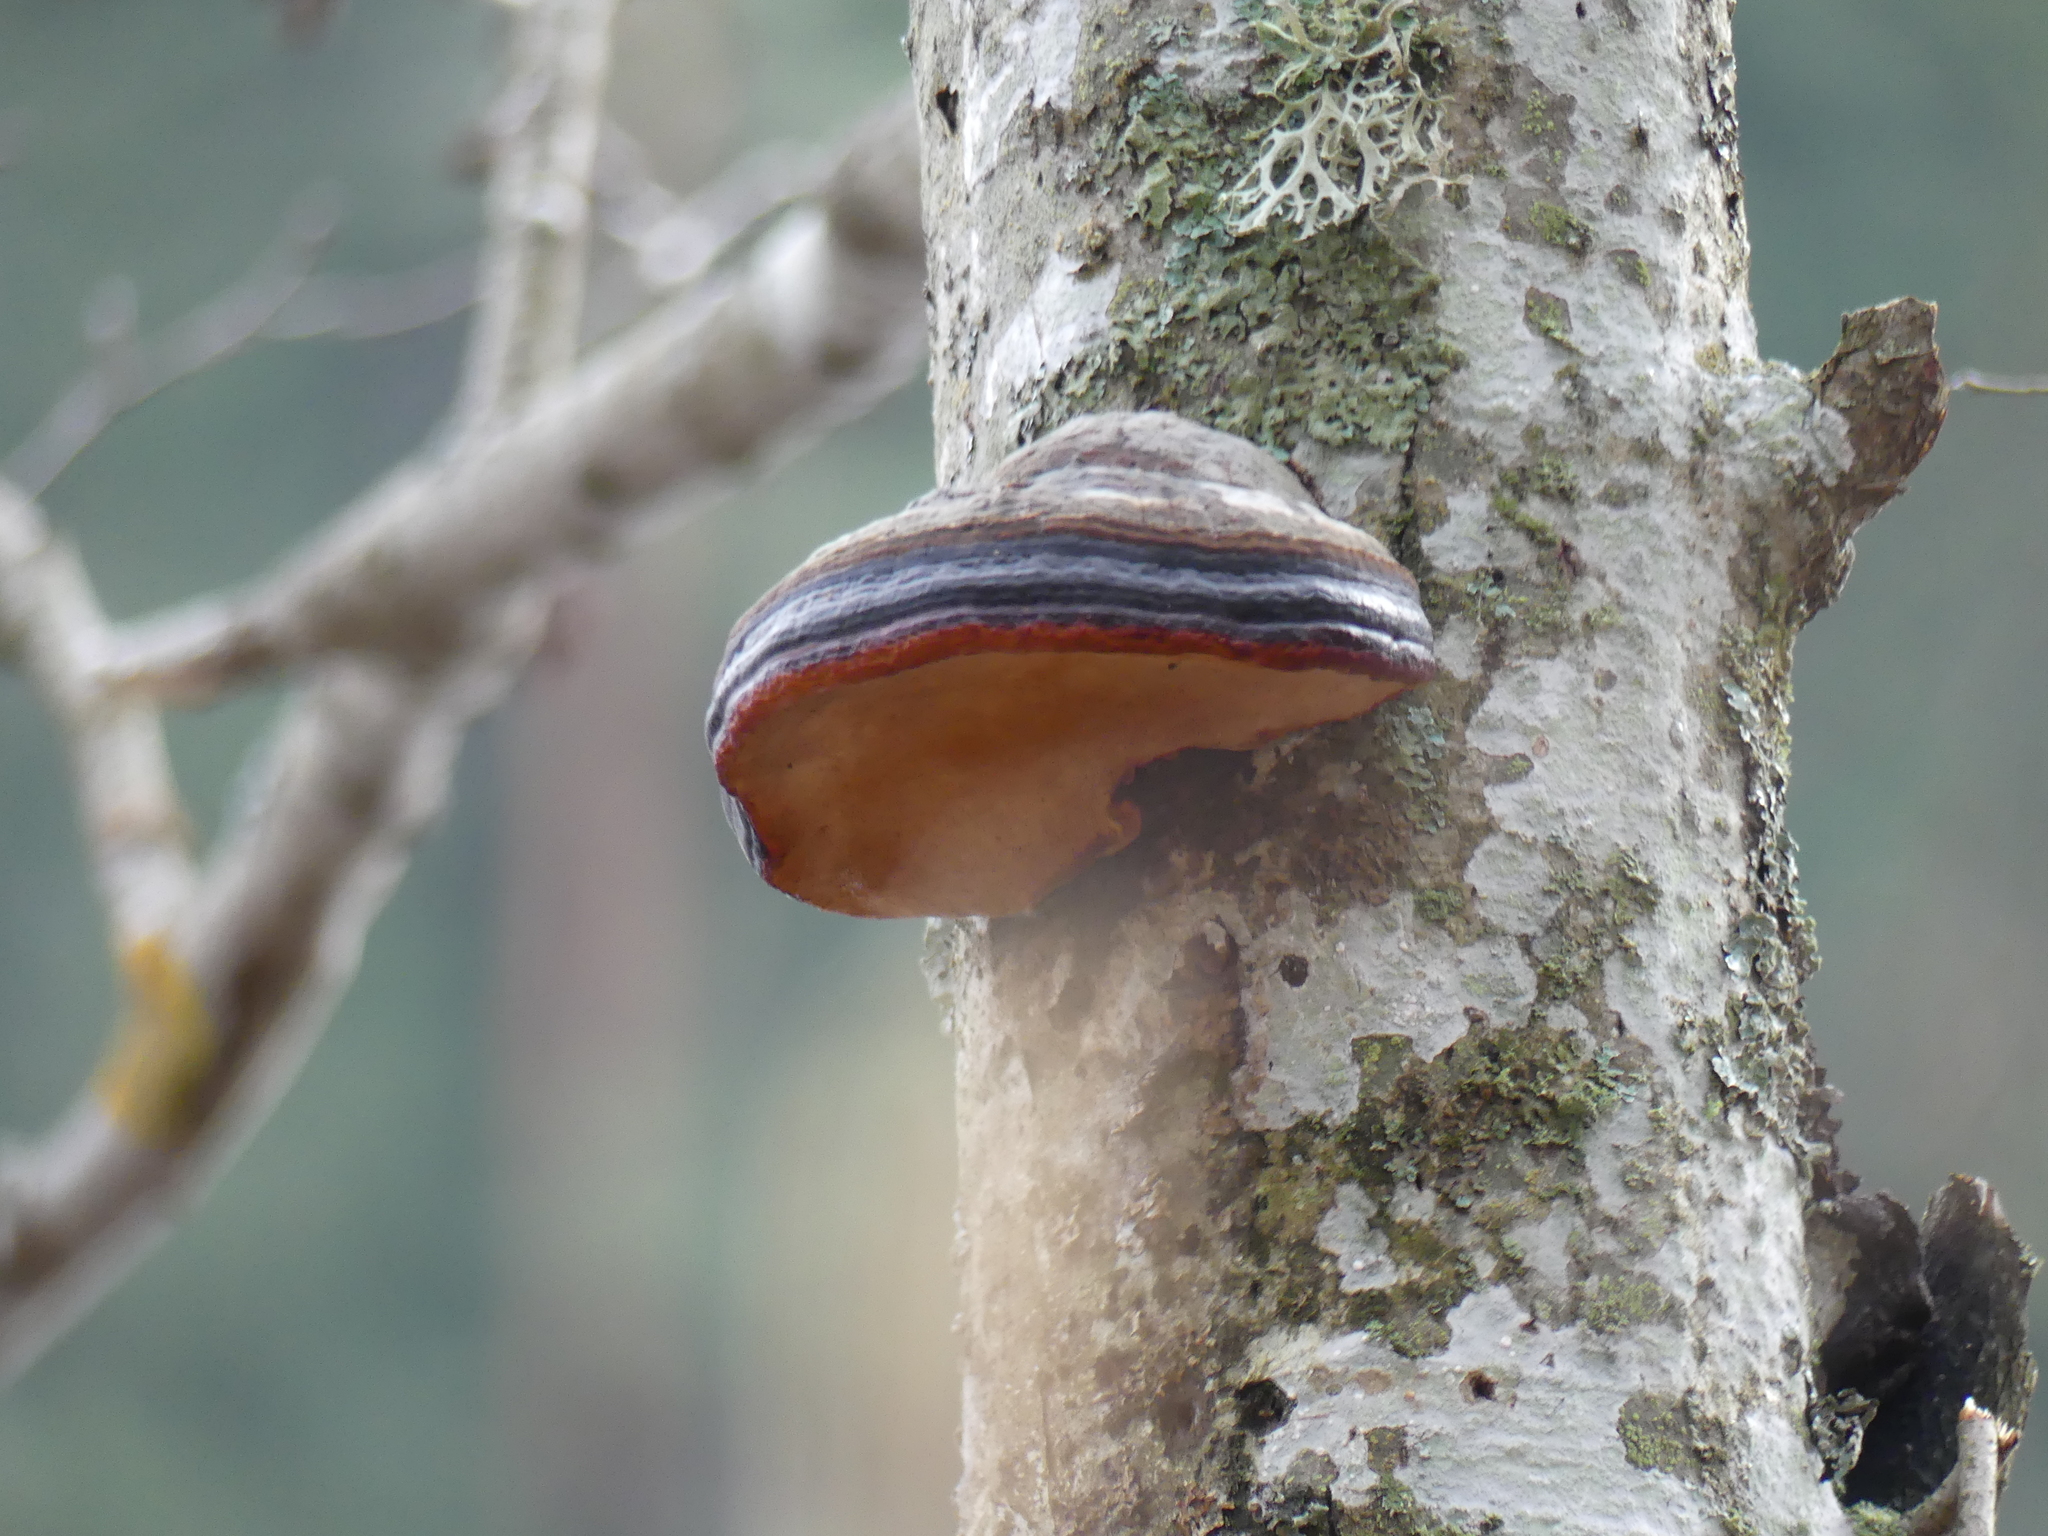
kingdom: Fungi
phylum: Basidiomycota
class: Agaricomycetes
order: Polyporales
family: Fomitopsidaceae
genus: Fomitopsis
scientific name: Fomitopsis pinicola
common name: Red-belted bracket
